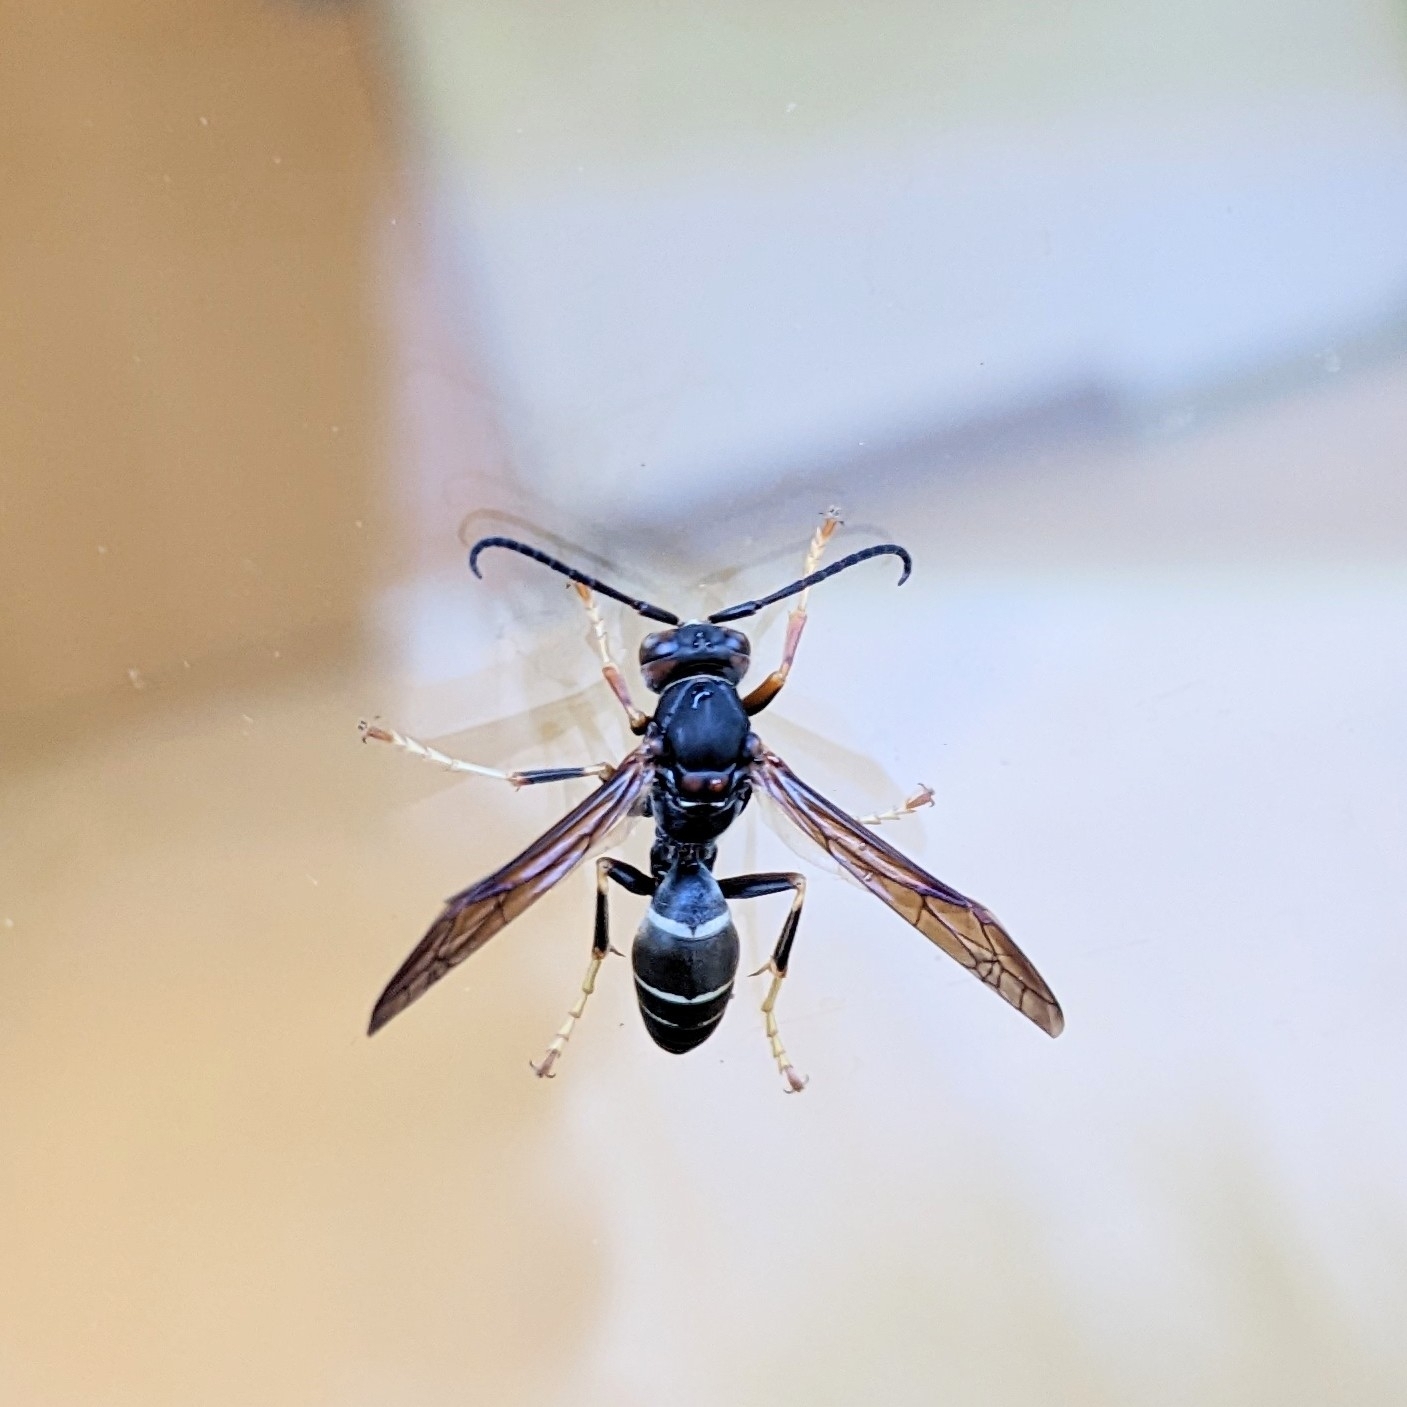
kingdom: Animalia
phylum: Arthropoda
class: Insecta
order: Hymenoptera
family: Eumenidae
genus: Polistes
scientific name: Polistes fuscatus
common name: Dark paper wasp
